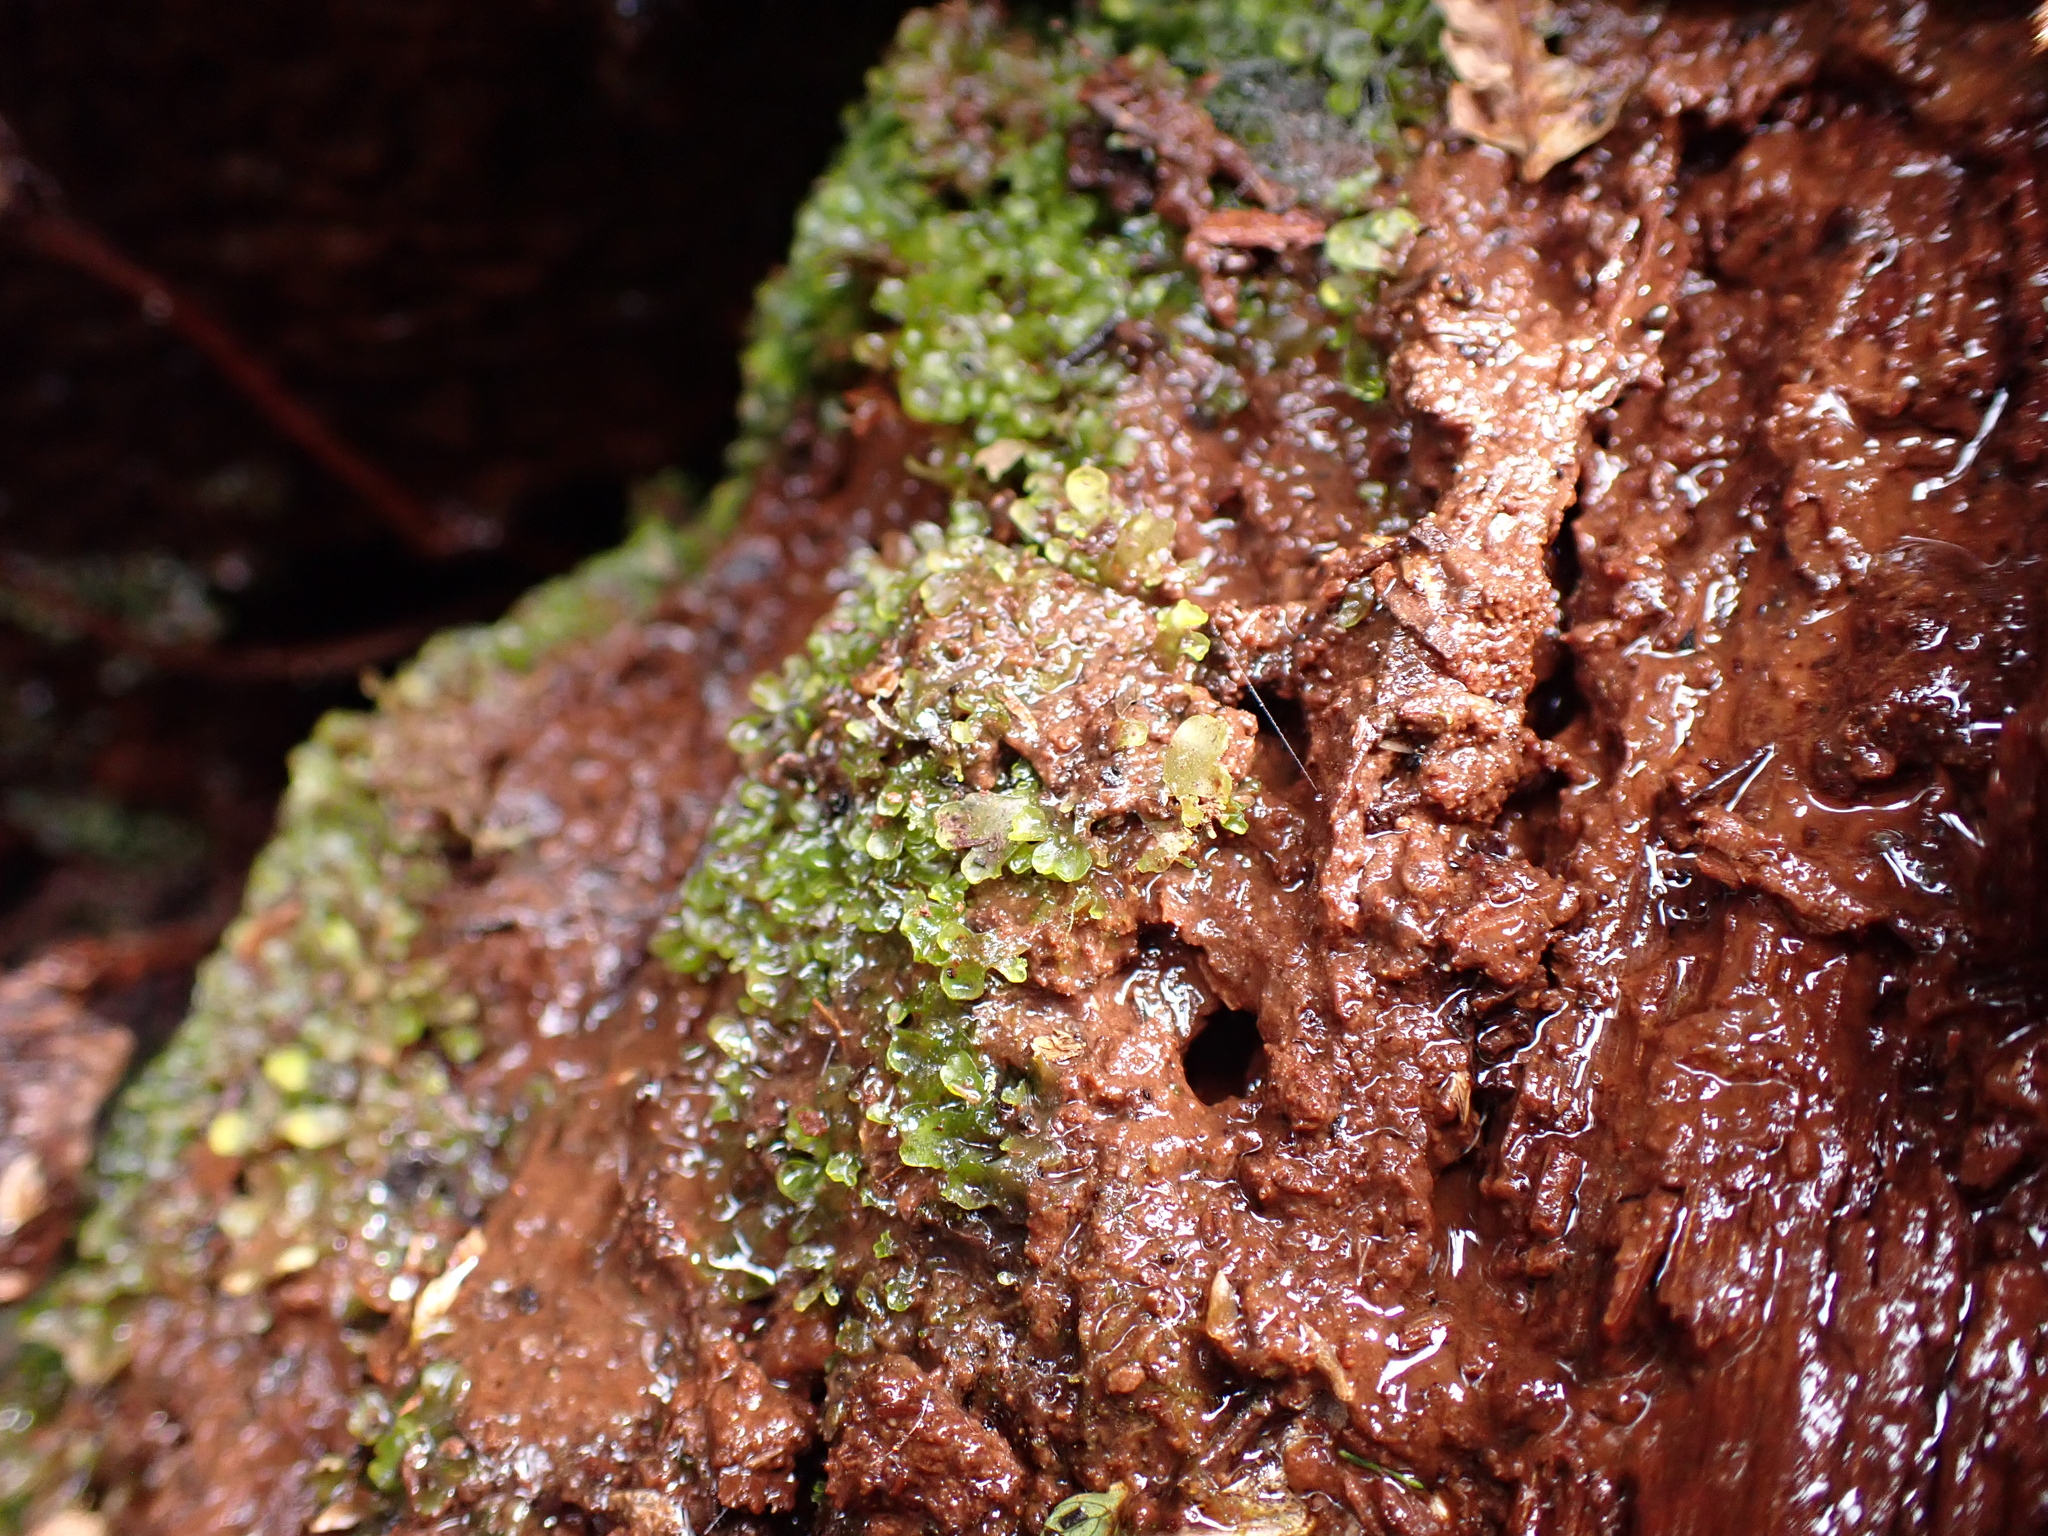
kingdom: Plantae
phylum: Marchantiophyta
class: Jungermanniopsida
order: Metzgeriales
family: Aneuraceae
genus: Riccardia
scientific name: Riccardia cochleata
